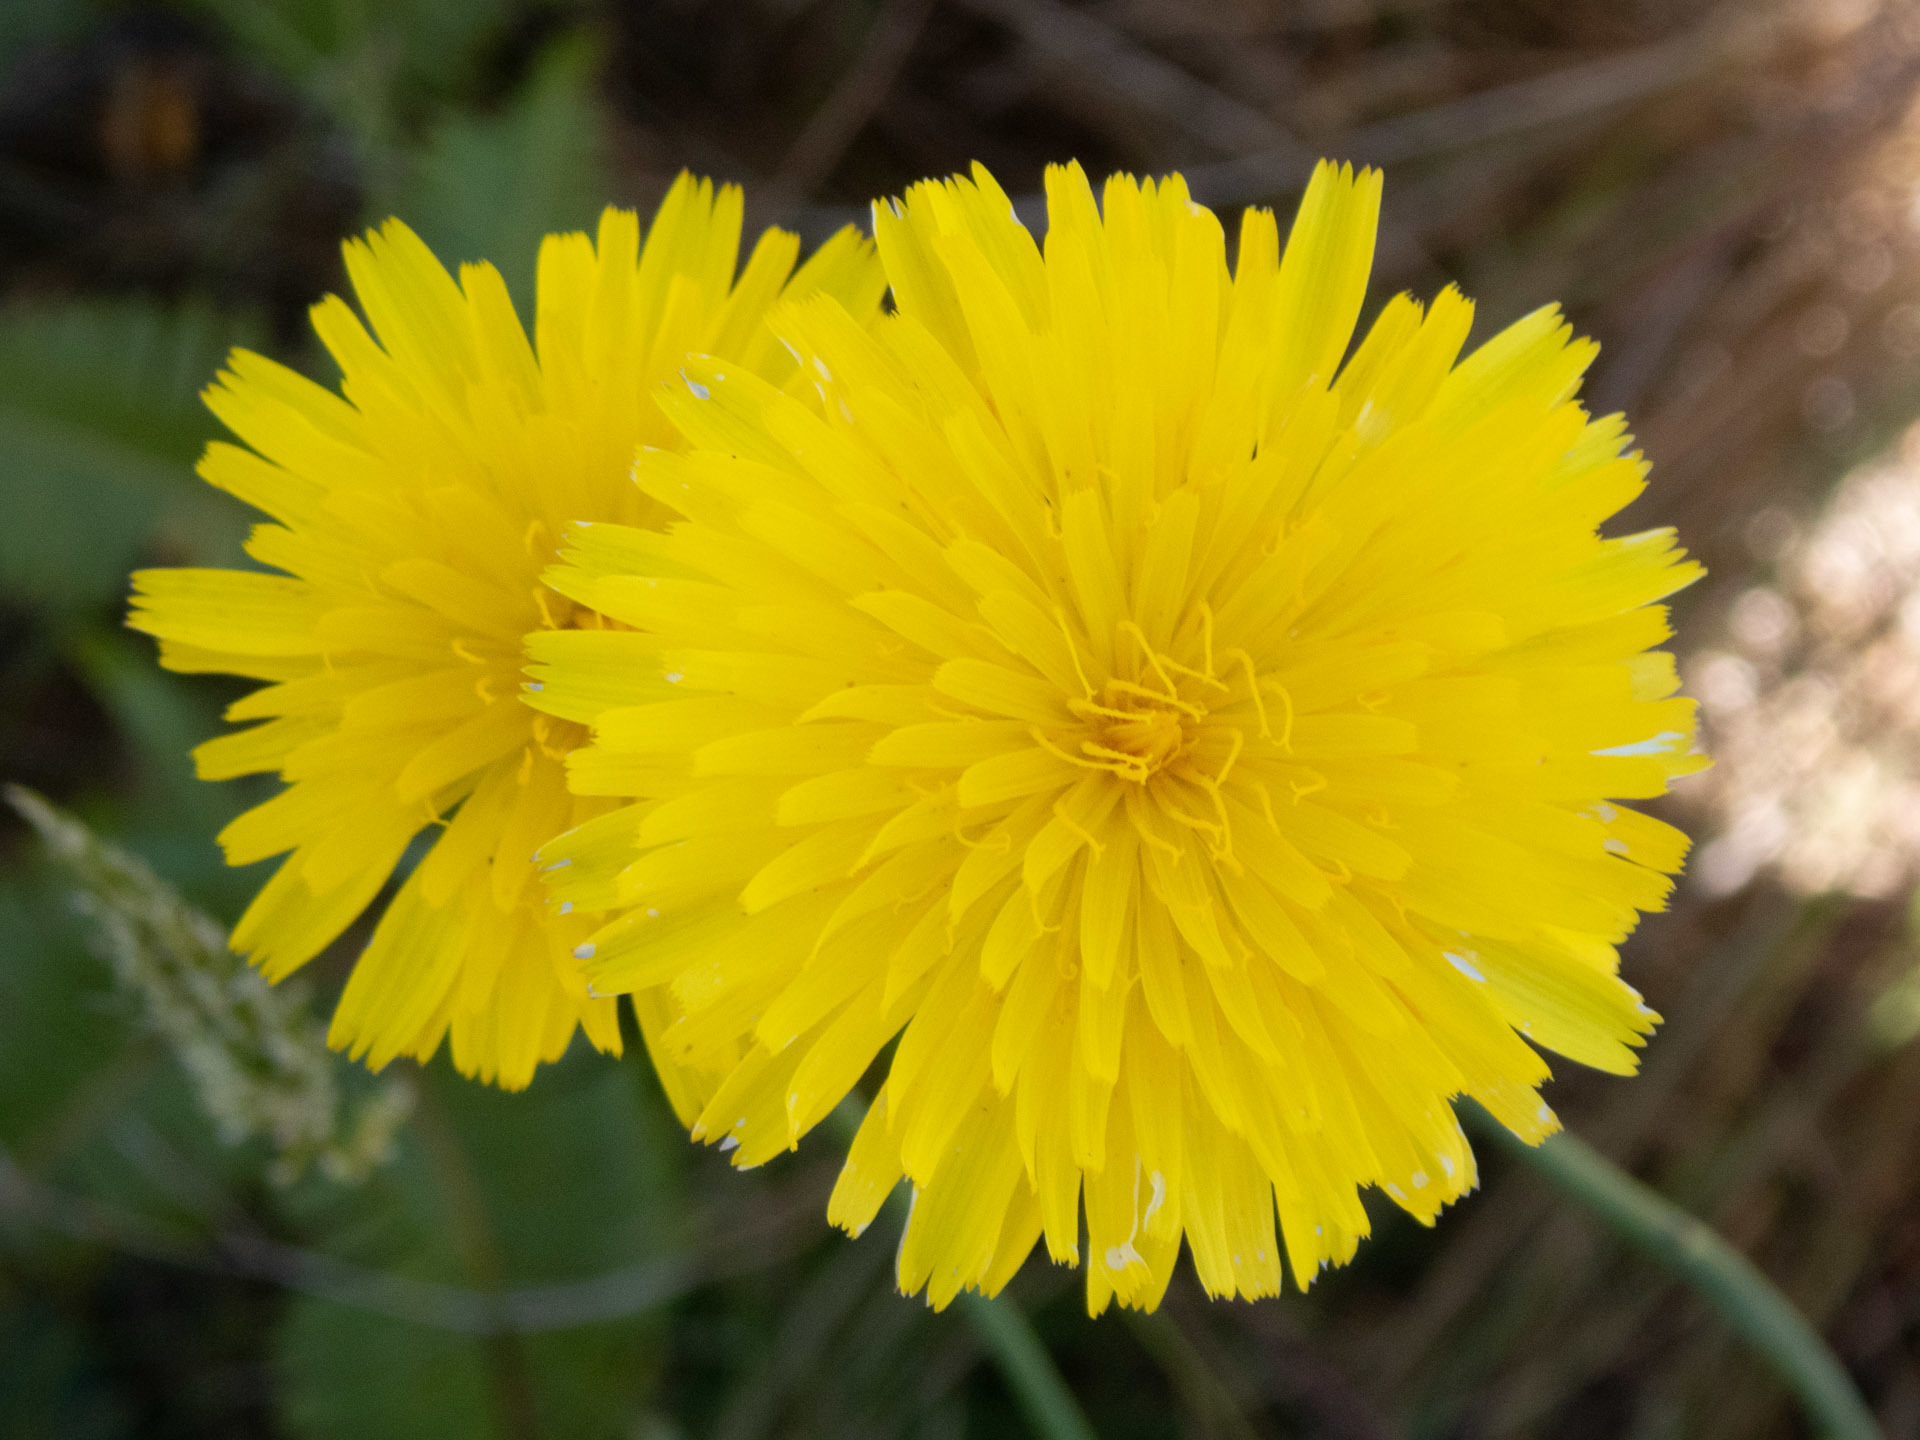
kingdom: Plantae
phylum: Tracheophyta
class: Magnoliopsida
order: Asterales
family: Asteraceae
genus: Hypochaeris
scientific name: Hypochaeris radicata
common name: Flatweed
